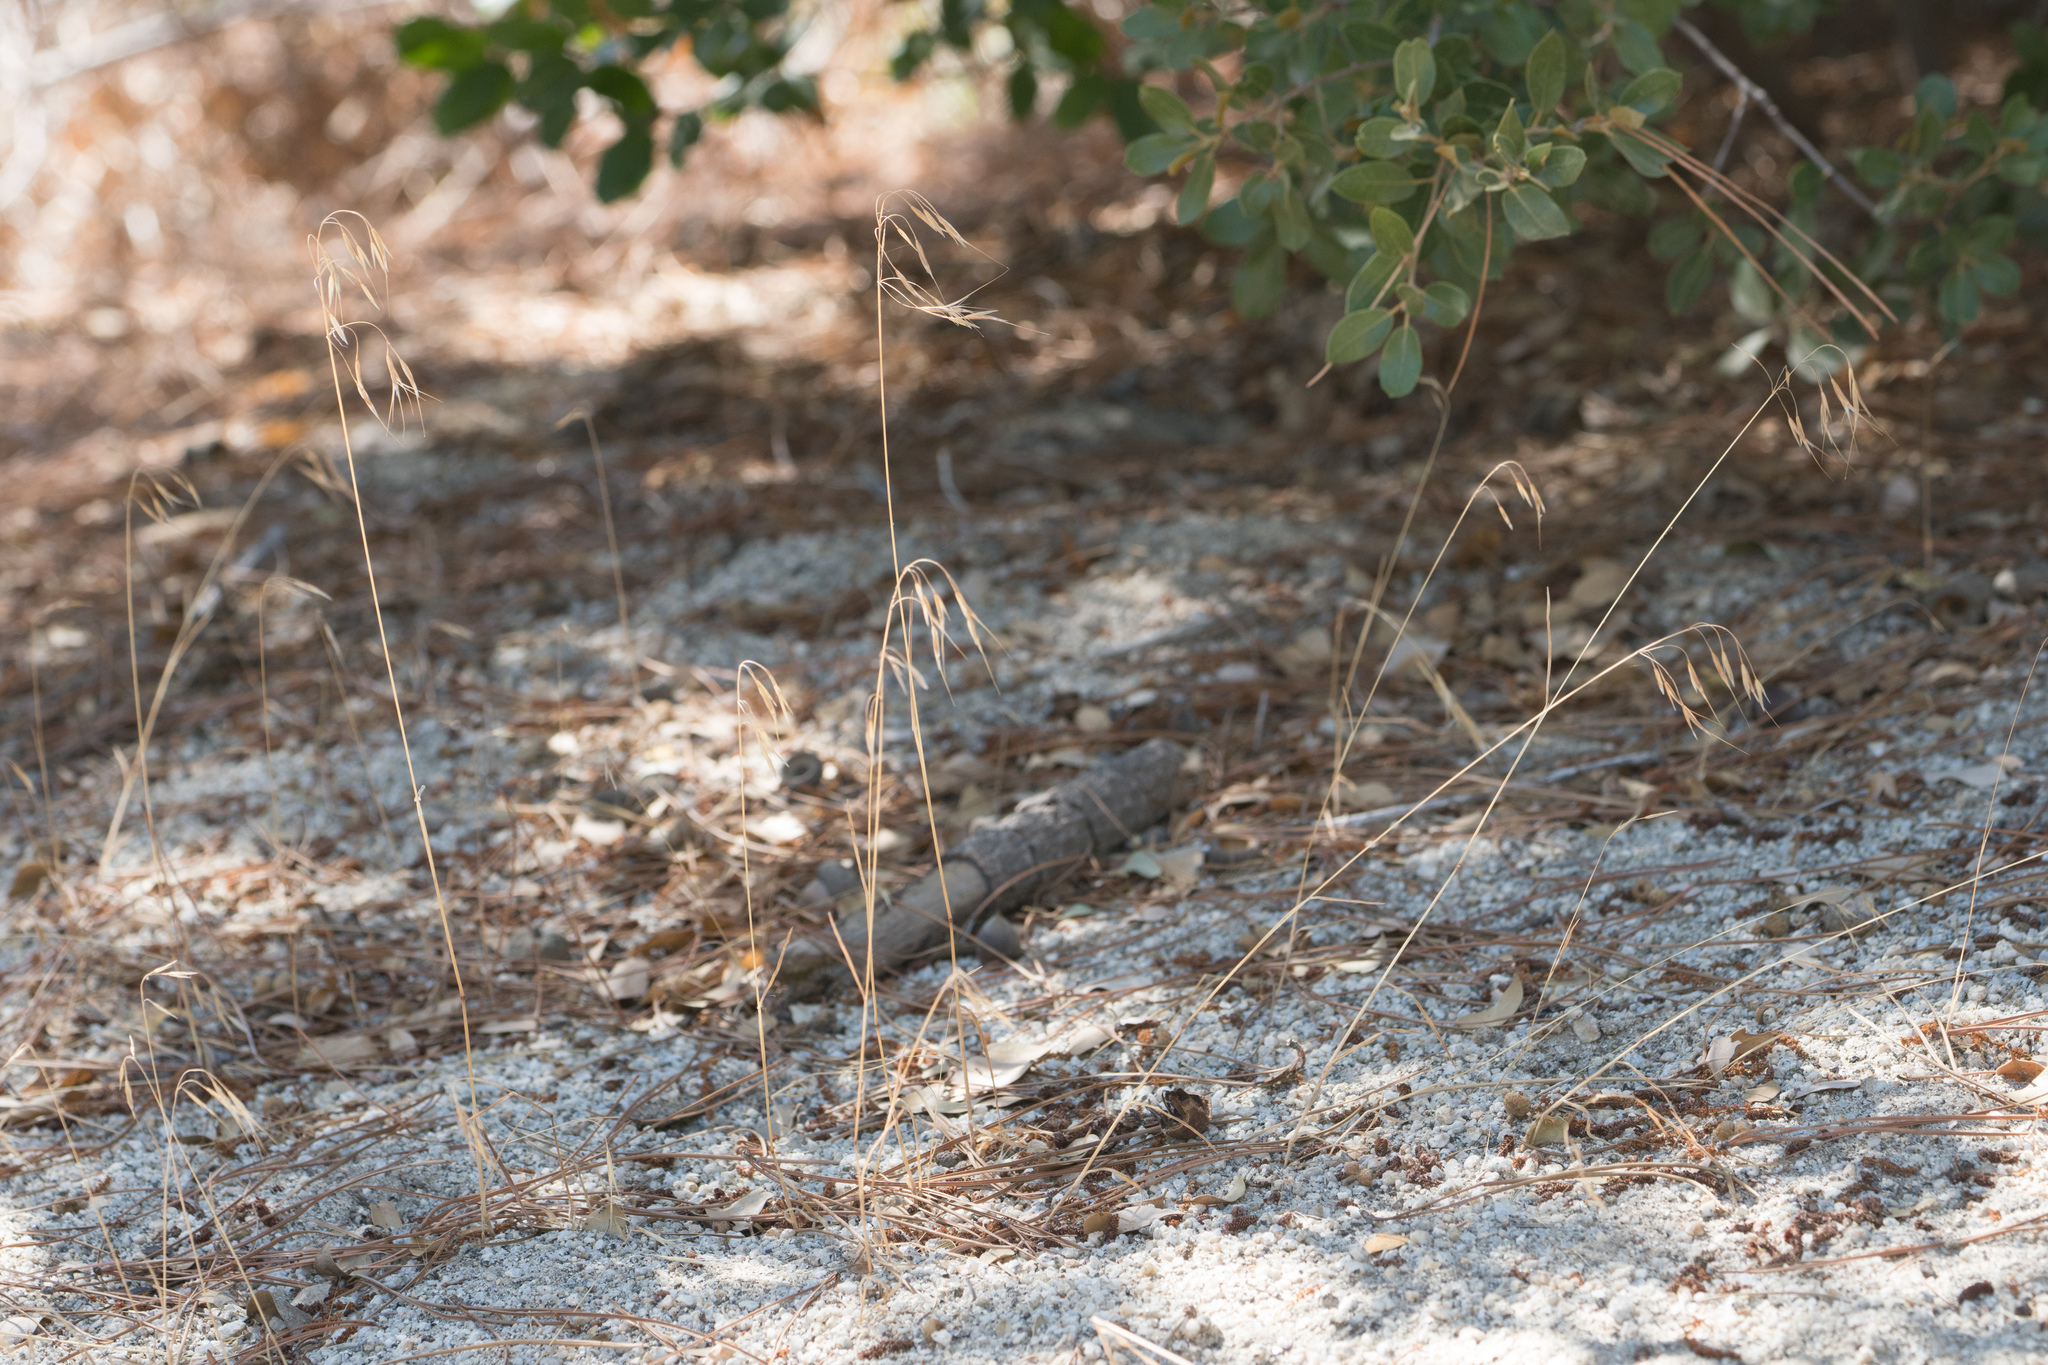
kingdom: Plantae
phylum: Tracheophyta
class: Liliopsida
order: Poales
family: Poaceae
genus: Bromus
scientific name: Bromus tectorum
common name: Cheatgrass
